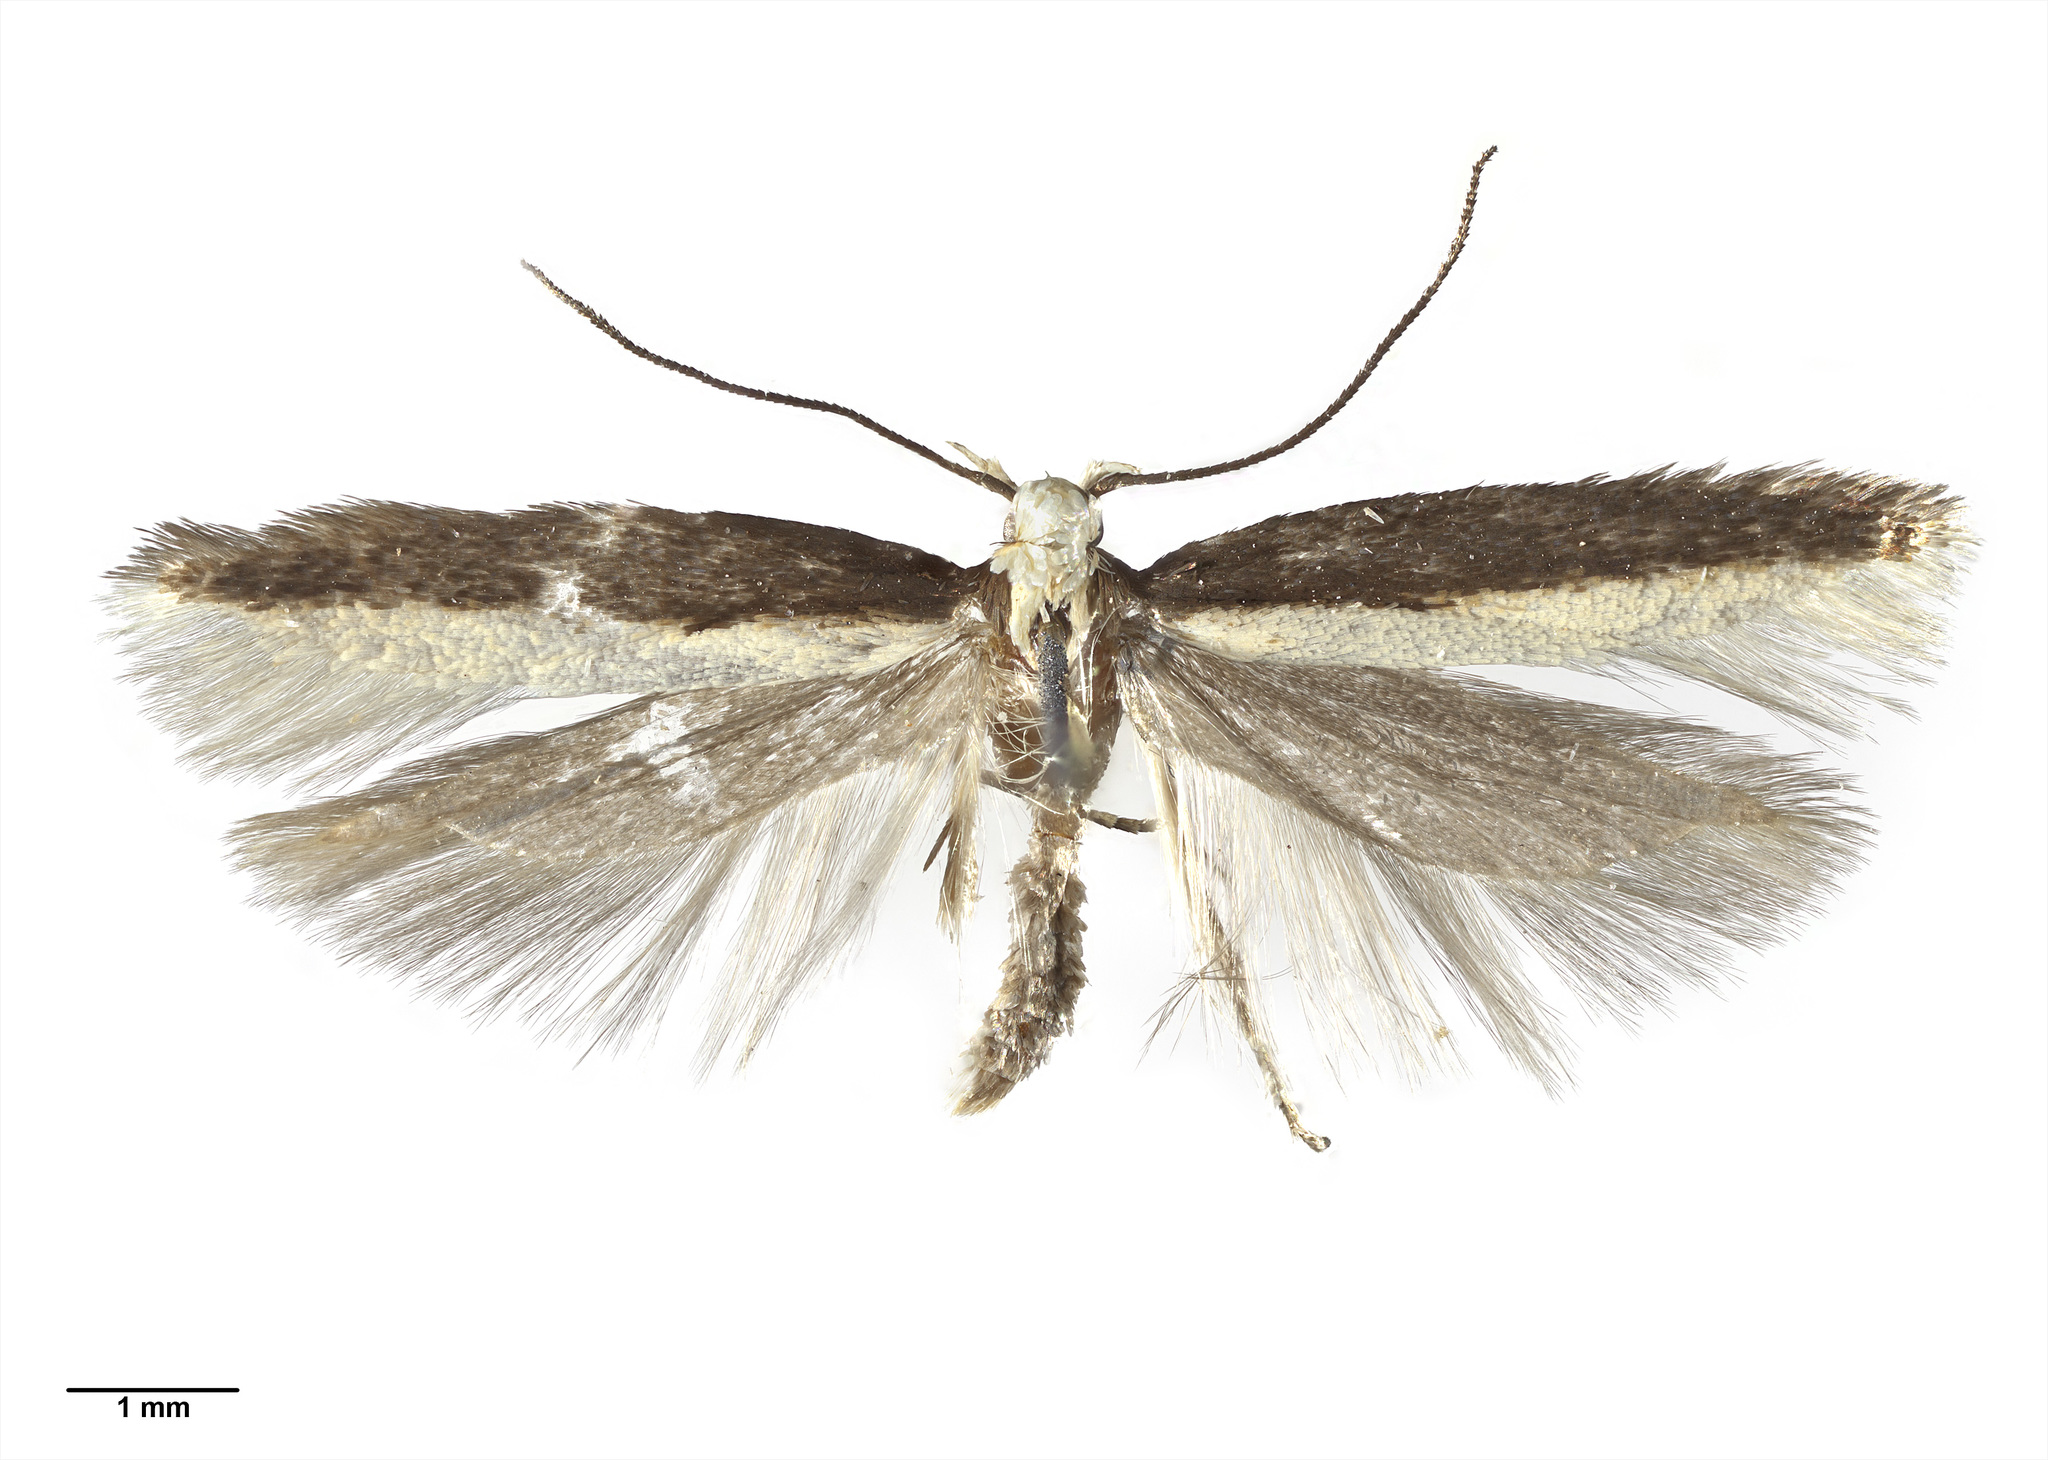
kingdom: Animalia
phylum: Arthropoda
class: Insecta
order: Lepidoptera
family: Gelechiidae
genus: Kiwaia
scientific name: Kiwaia parvula
